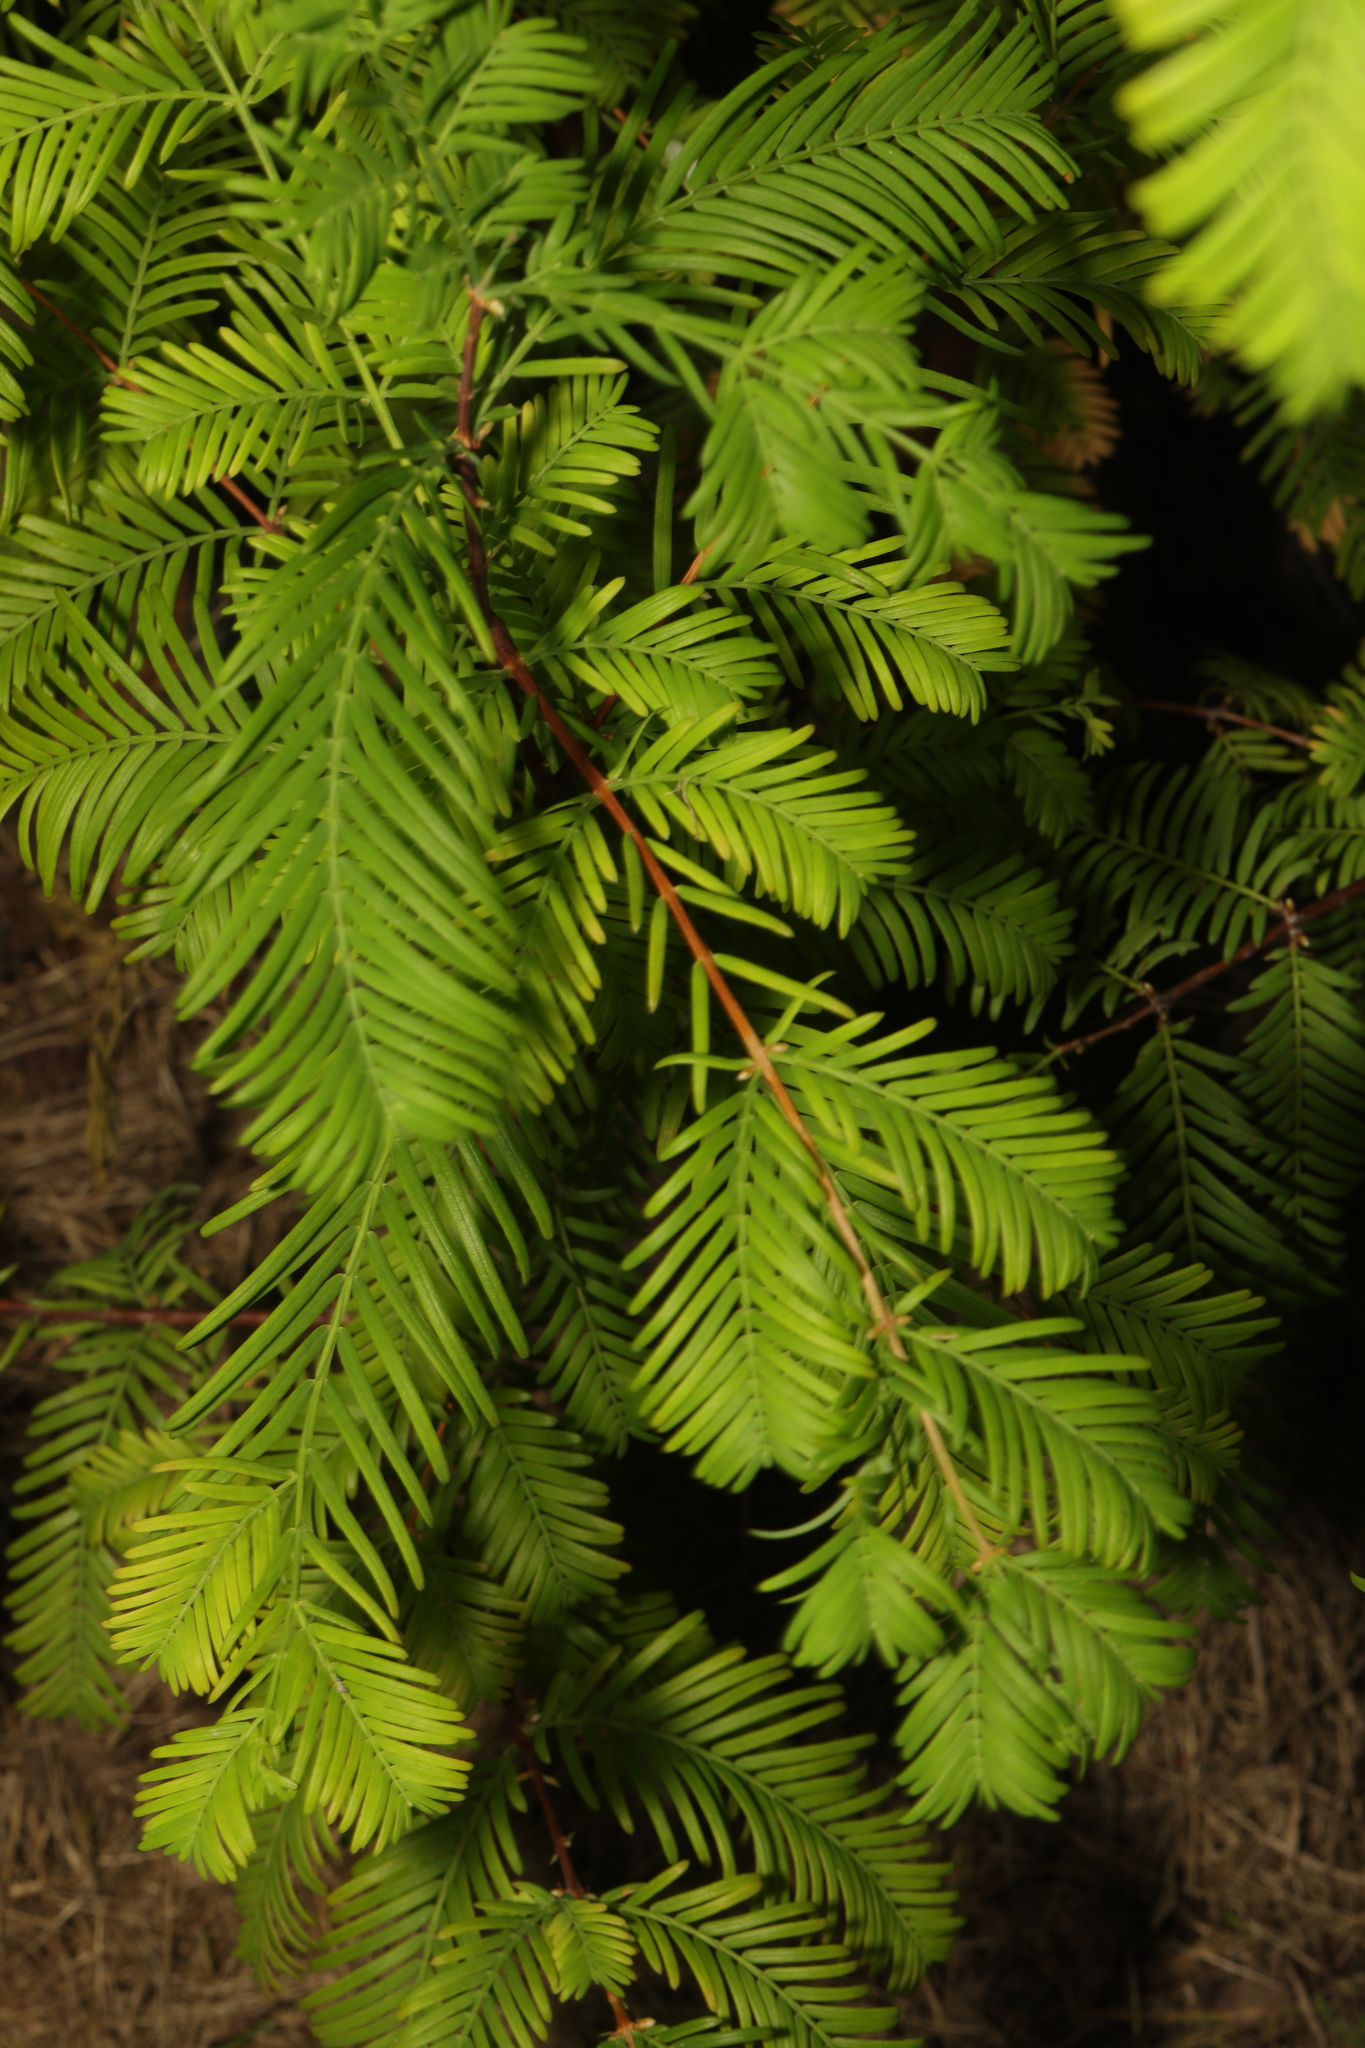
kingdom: Plantae
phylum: Tracheophyta
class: Pinopsida
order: Pinales
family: Cupressaceae
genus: Metasequoia
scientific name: Metasequoia glyptostroboides
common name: Dawn redwood
